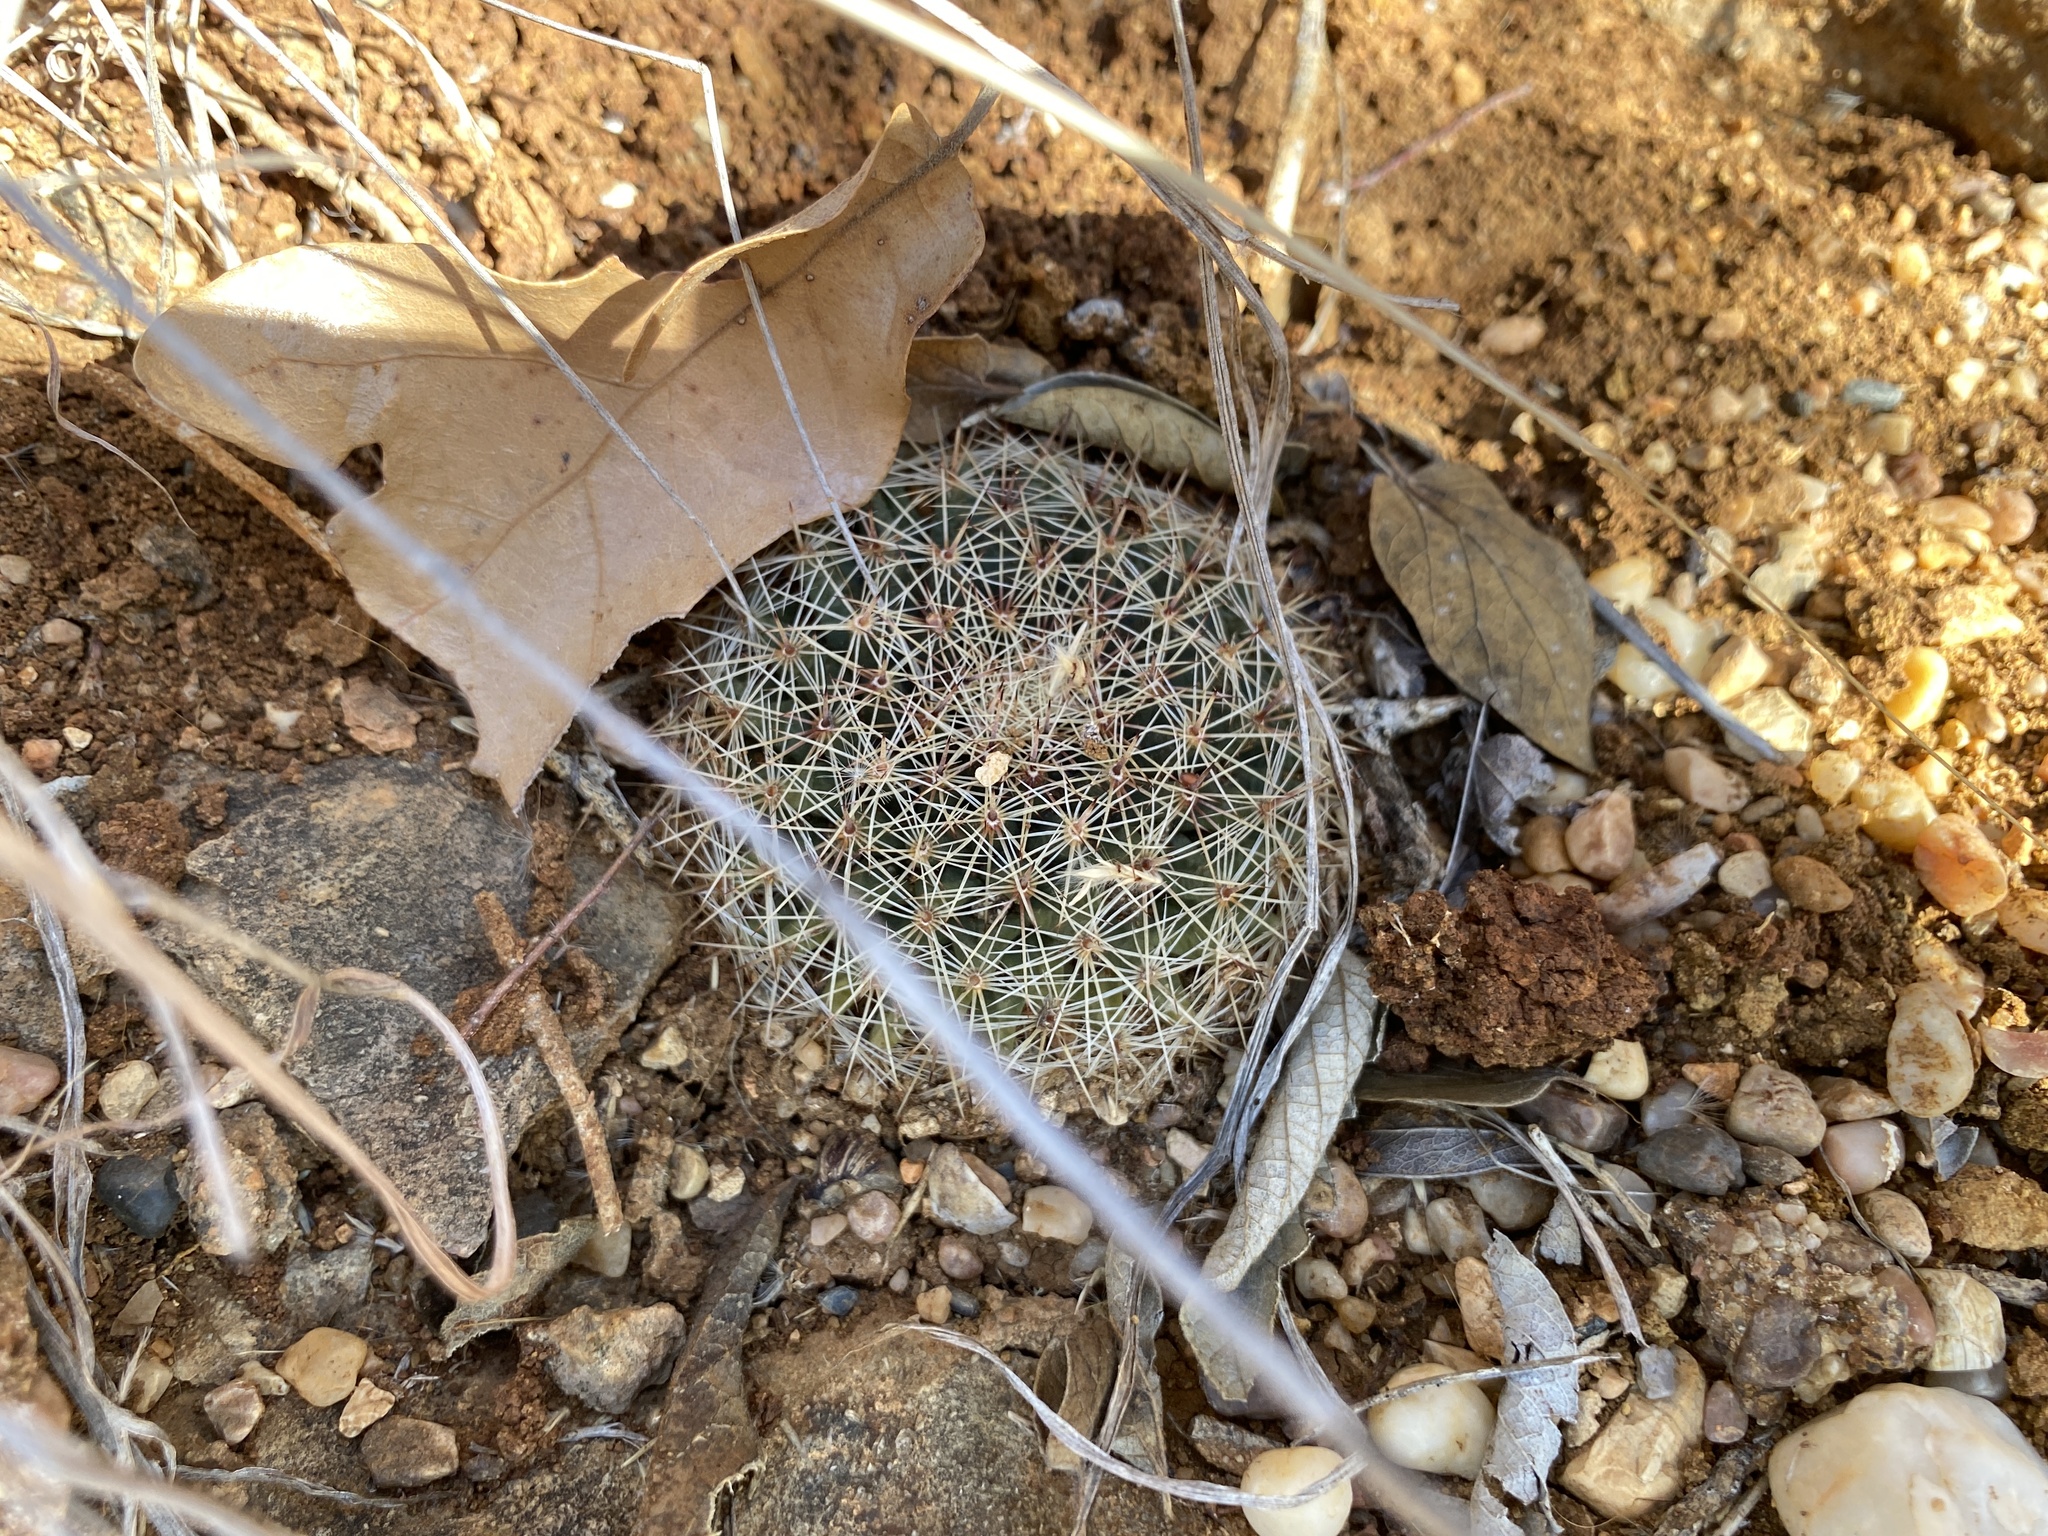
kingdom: Plantae
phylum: Tracheophyta
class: Magnoliopsida
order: Caryophyllales
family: Cactaceae
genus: Mammillaria
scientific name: Mammillaria heyderi
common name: Little nipple cactus
